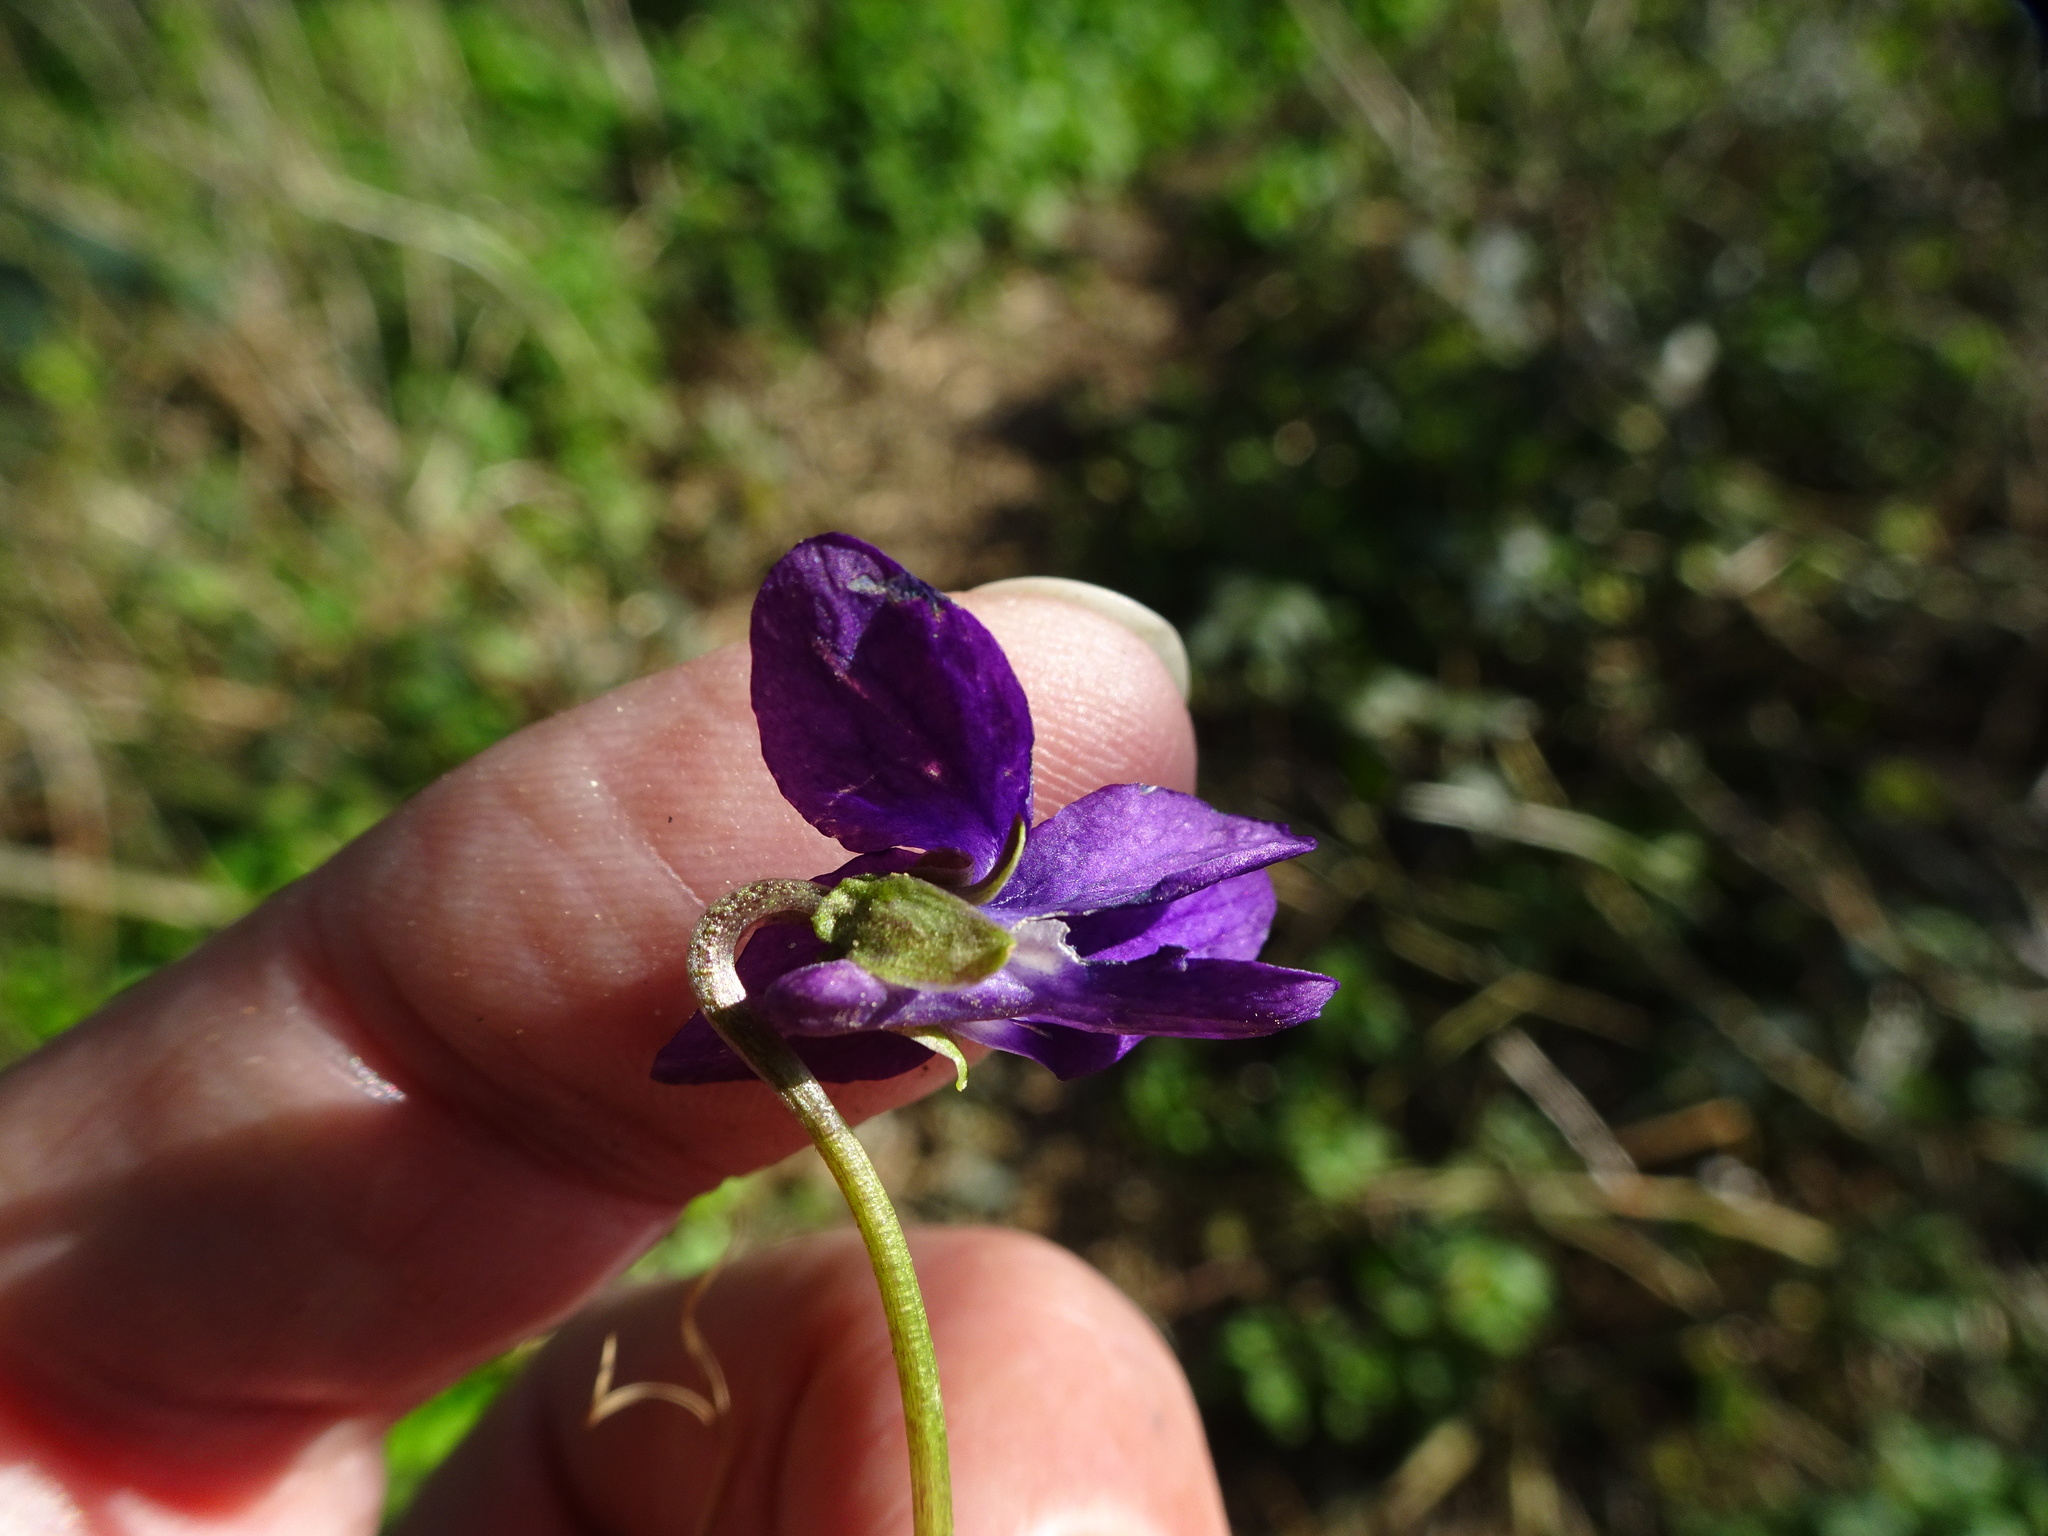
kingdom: Plantae
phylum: Tracheophyta
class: Magnoliopsida
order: Malpighiales
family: Violaceae
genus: Viola
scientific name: Viola odorata
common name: Sweet violet
